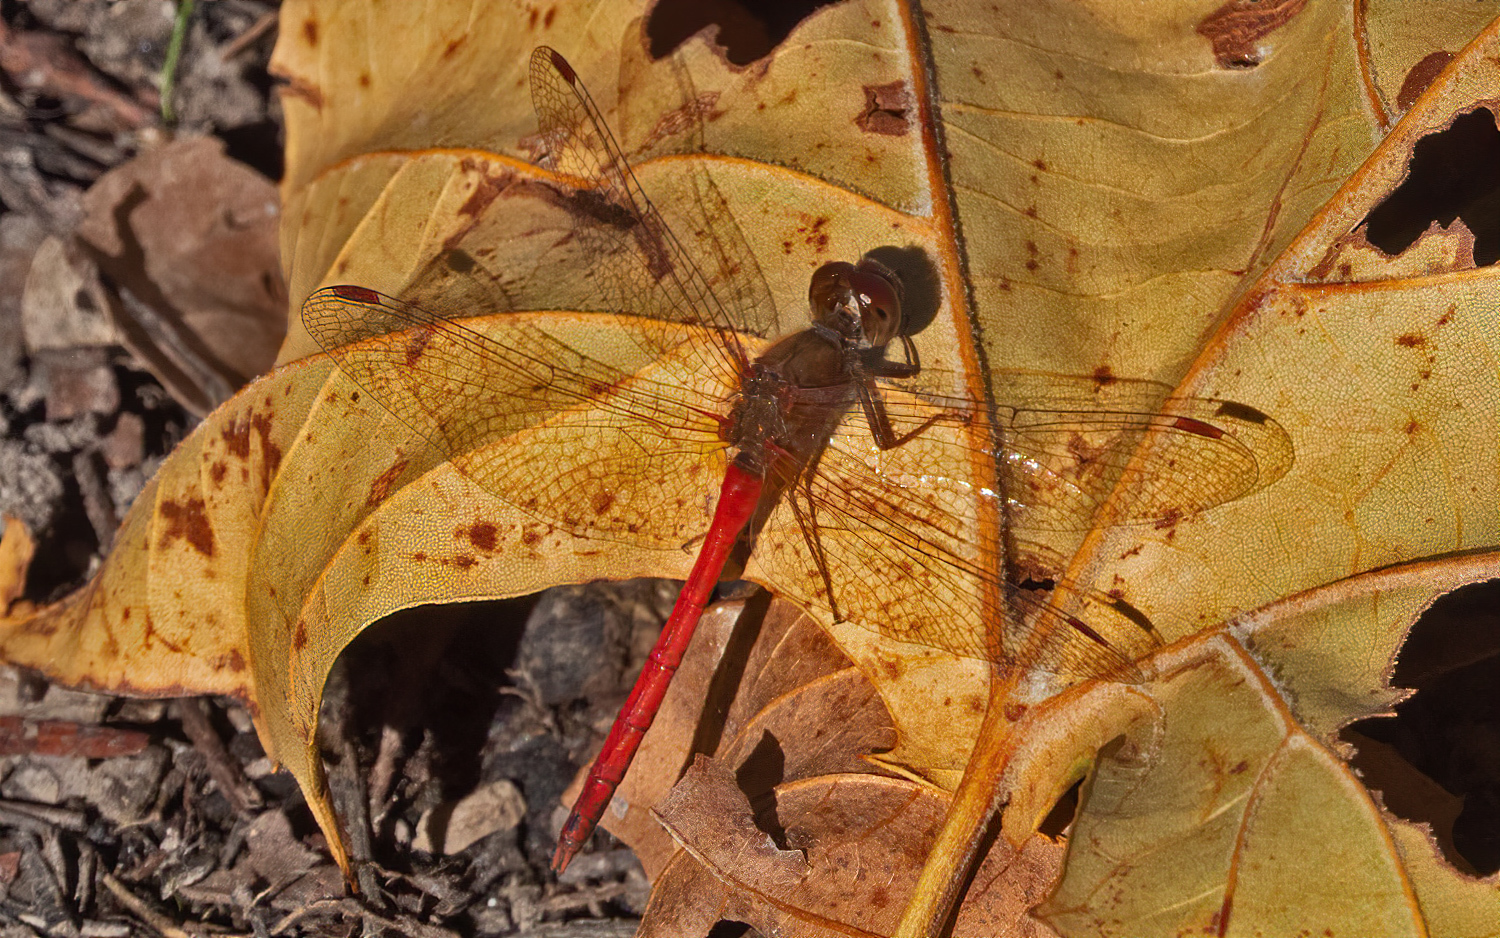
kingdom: Animalia
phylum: Arthropoda
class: Insecta
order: Odonata
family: Libellulidae
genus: Sympetrum
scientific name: Sympetrum vicinum
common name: Autumn meadowhawk
